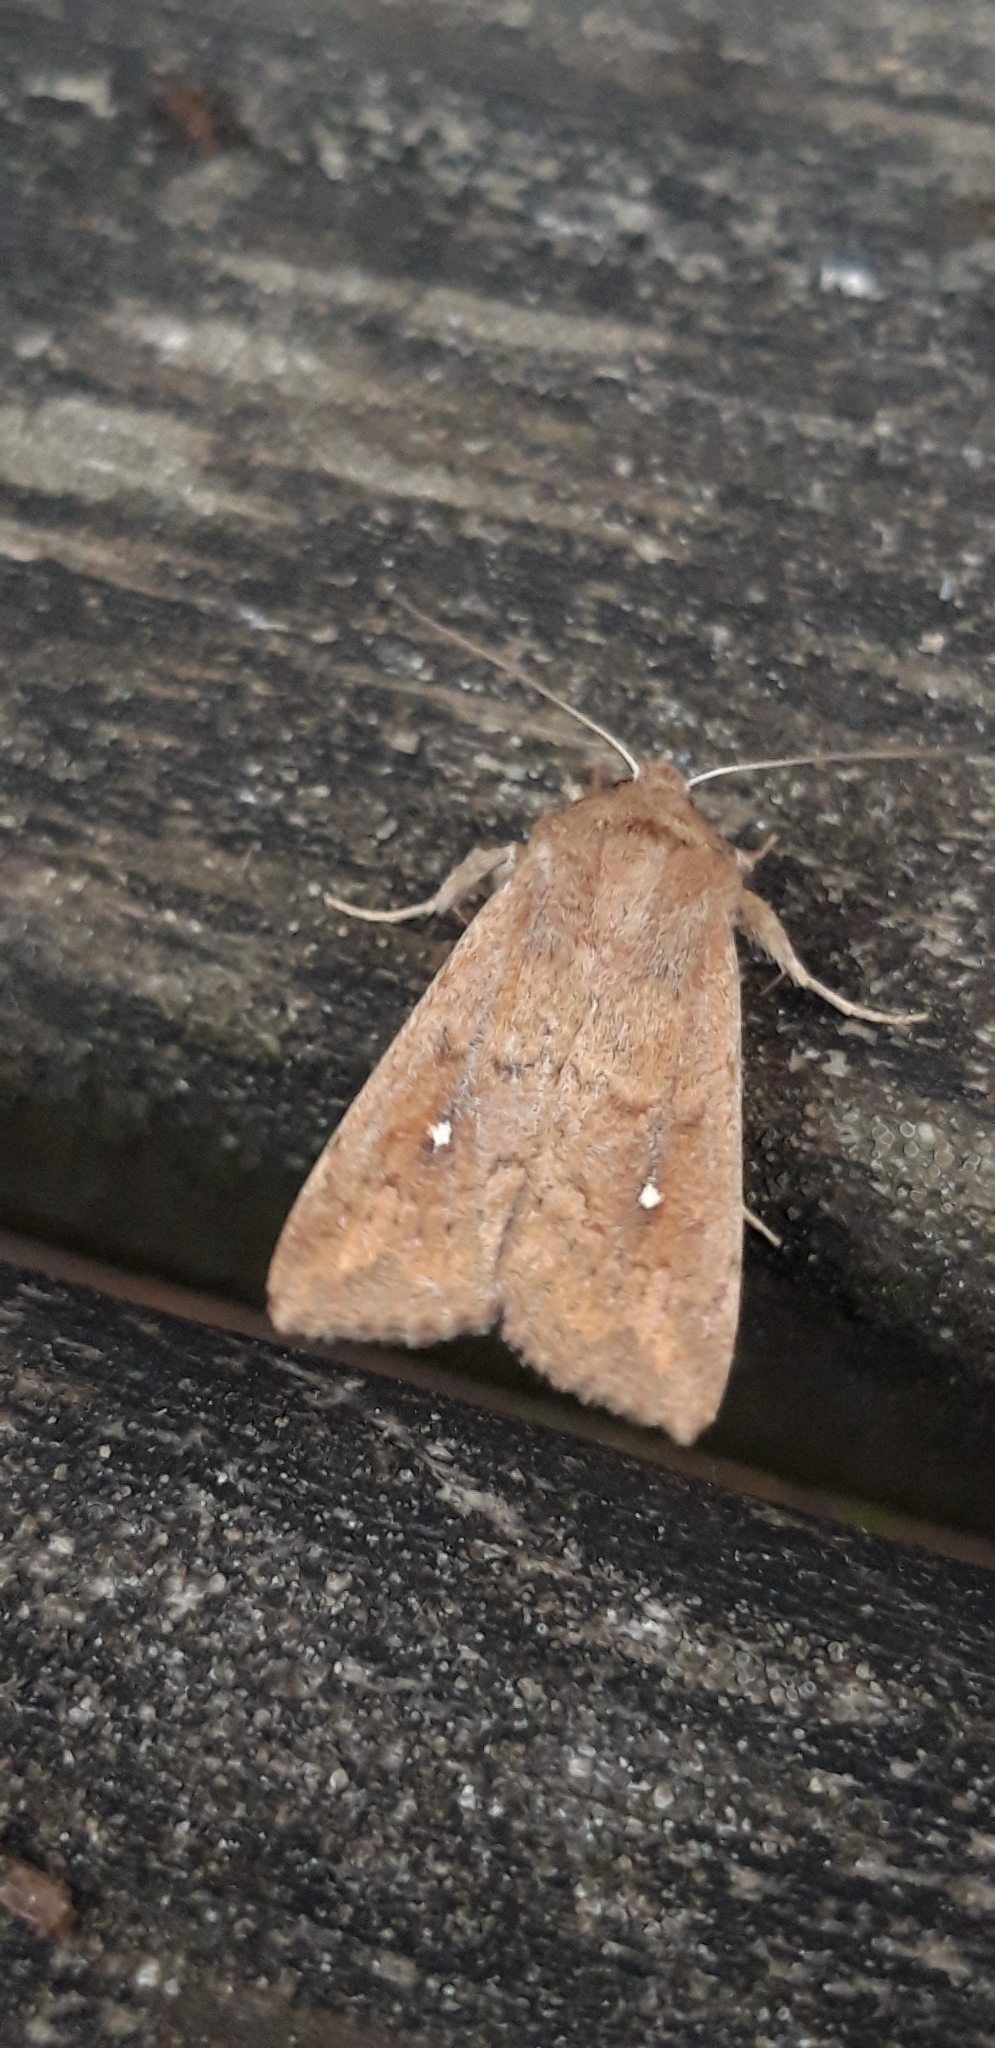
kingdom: Animalia
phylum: Arthropoda
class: Insecta
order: Lepidoptera
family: Noctuidae
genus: Mythimna
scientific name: Mythimna albipuncta
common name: White-point
